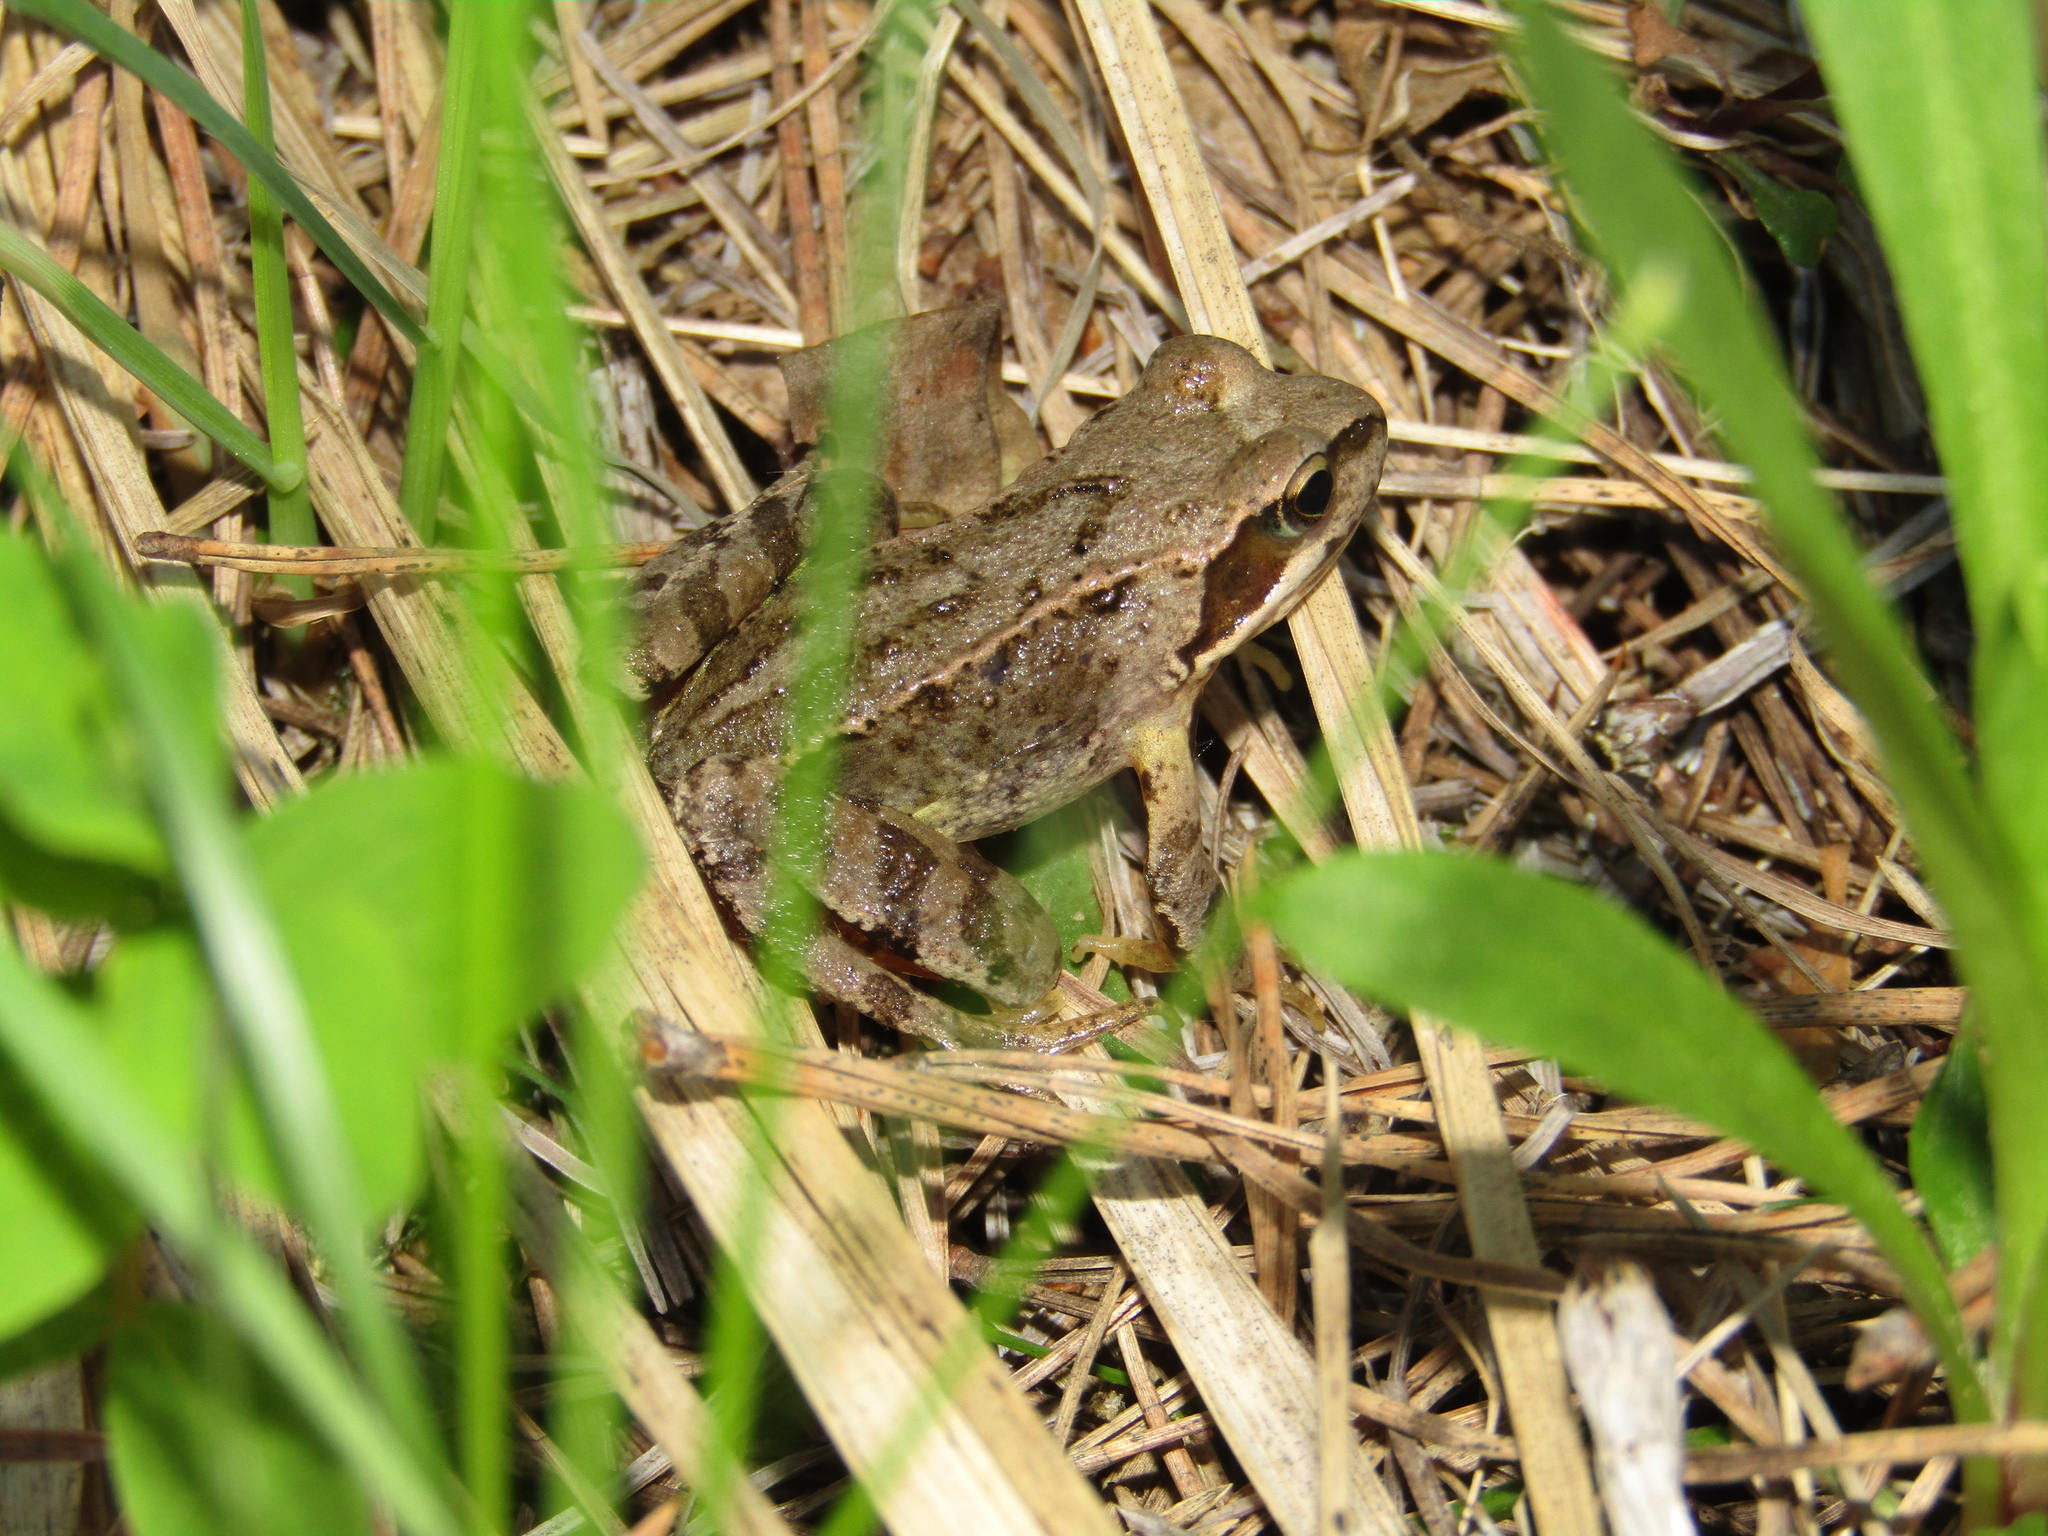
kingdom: Animalia
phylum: Chordata
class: Amphibia
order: Anura
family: Ranidae
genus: Rana
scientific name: Rana temporaria
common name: Common frog
